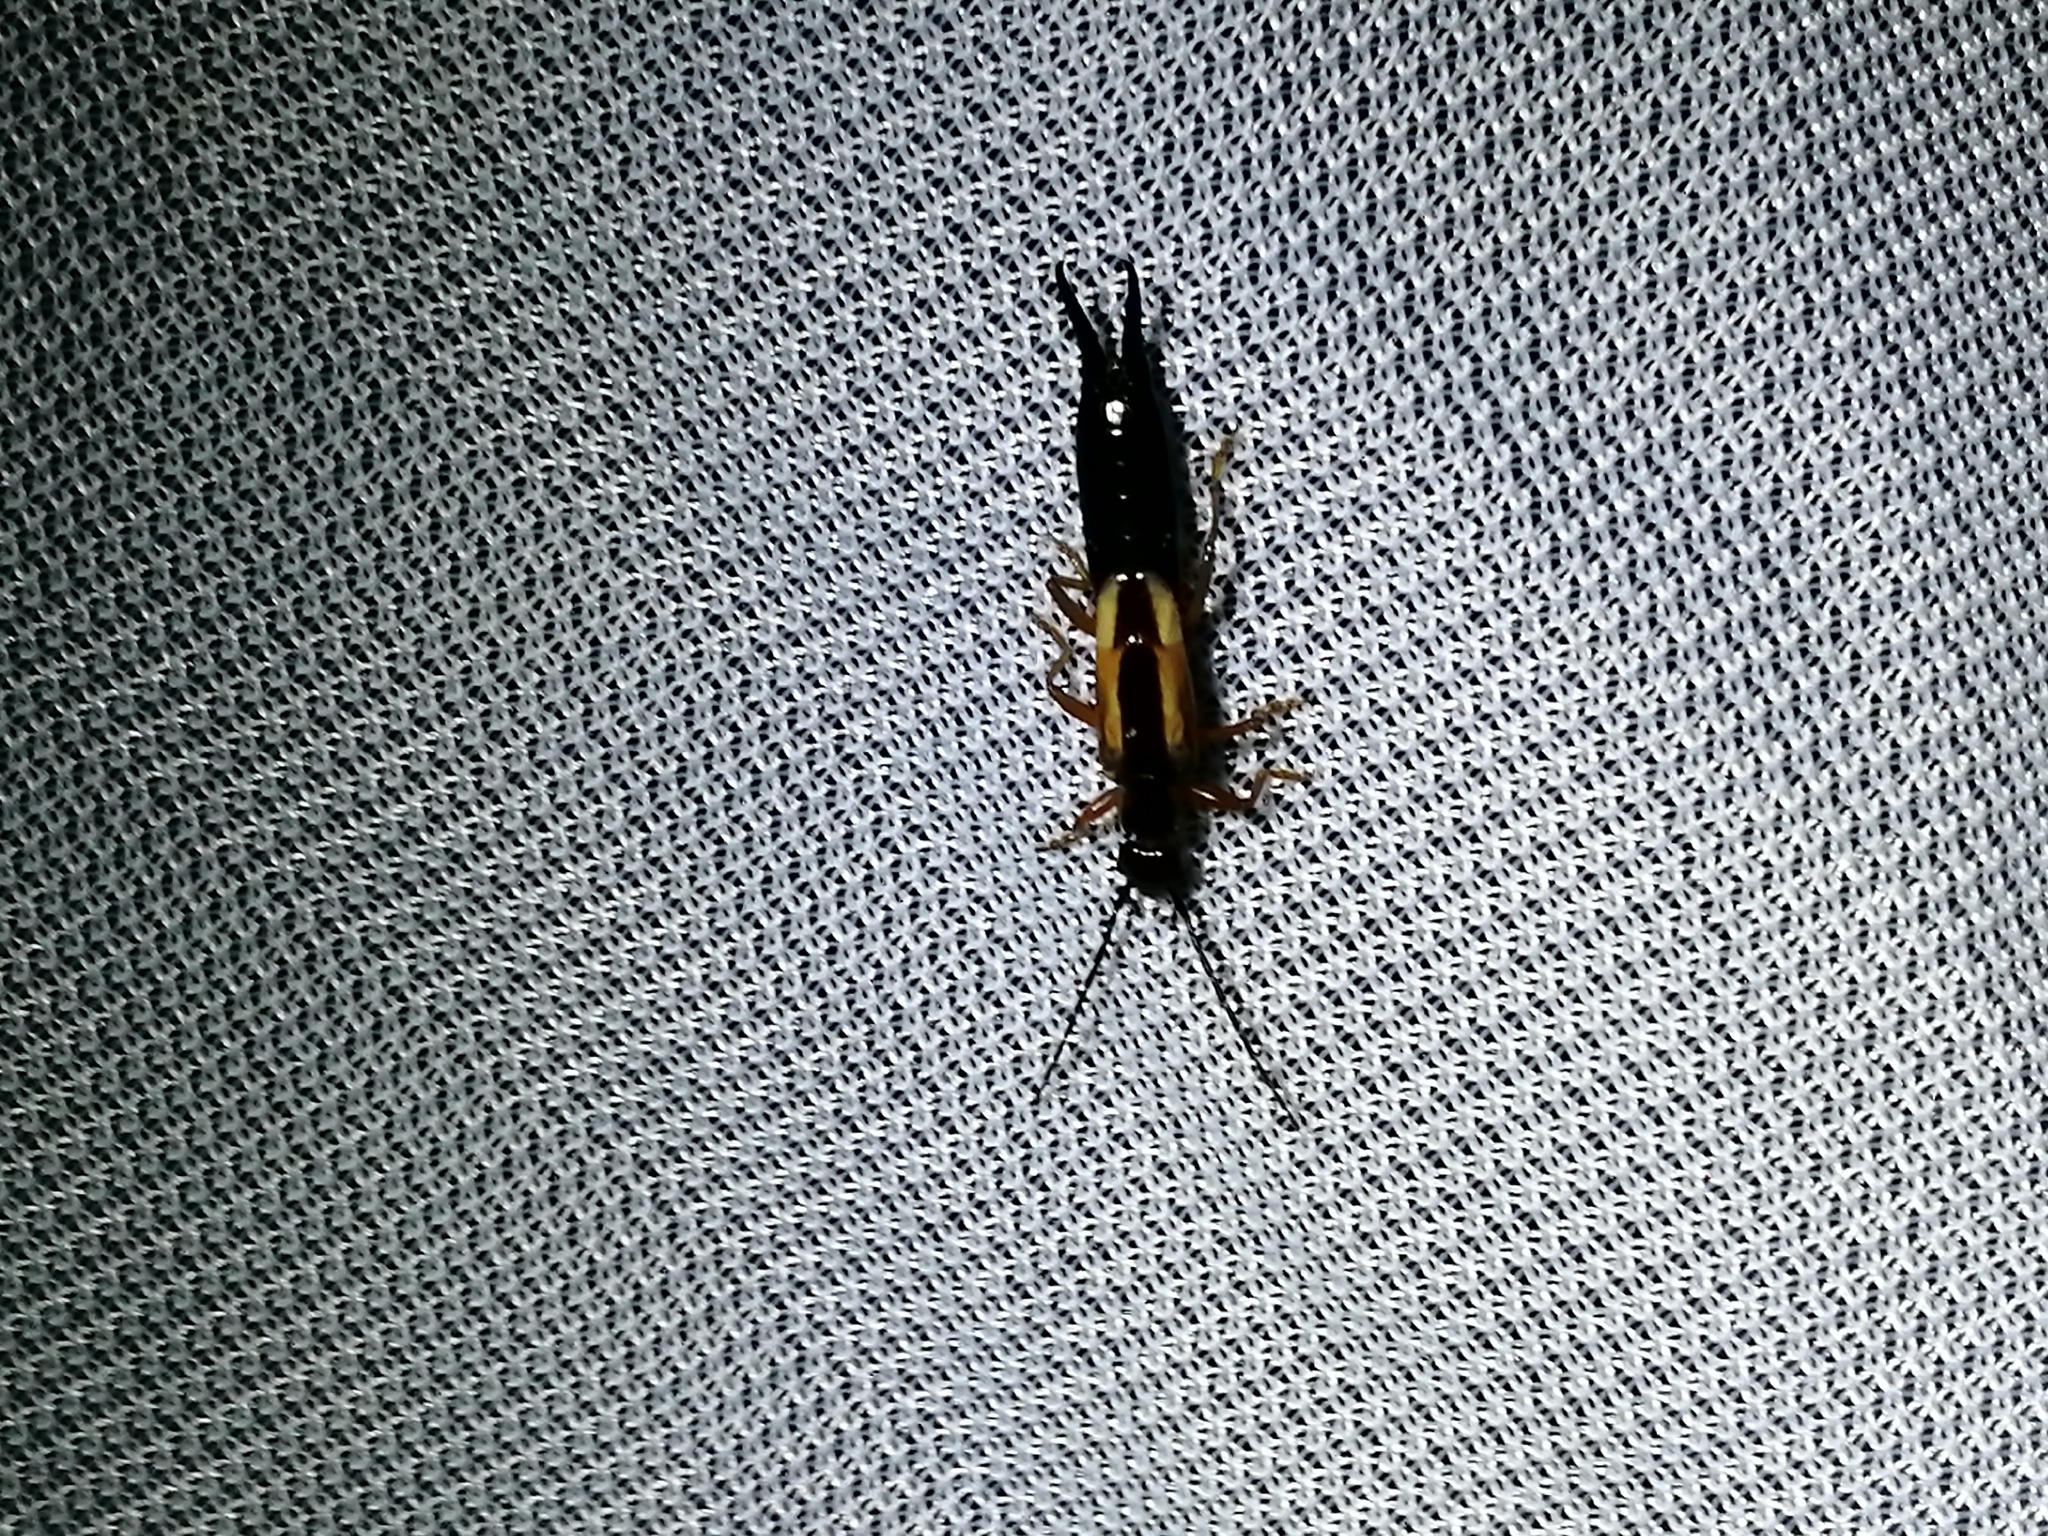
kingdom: Animalia
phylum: Arthropoda
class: Insecta
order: Dermaptera
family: Forficulidae
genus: Doru
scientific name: Doru taeniatum
